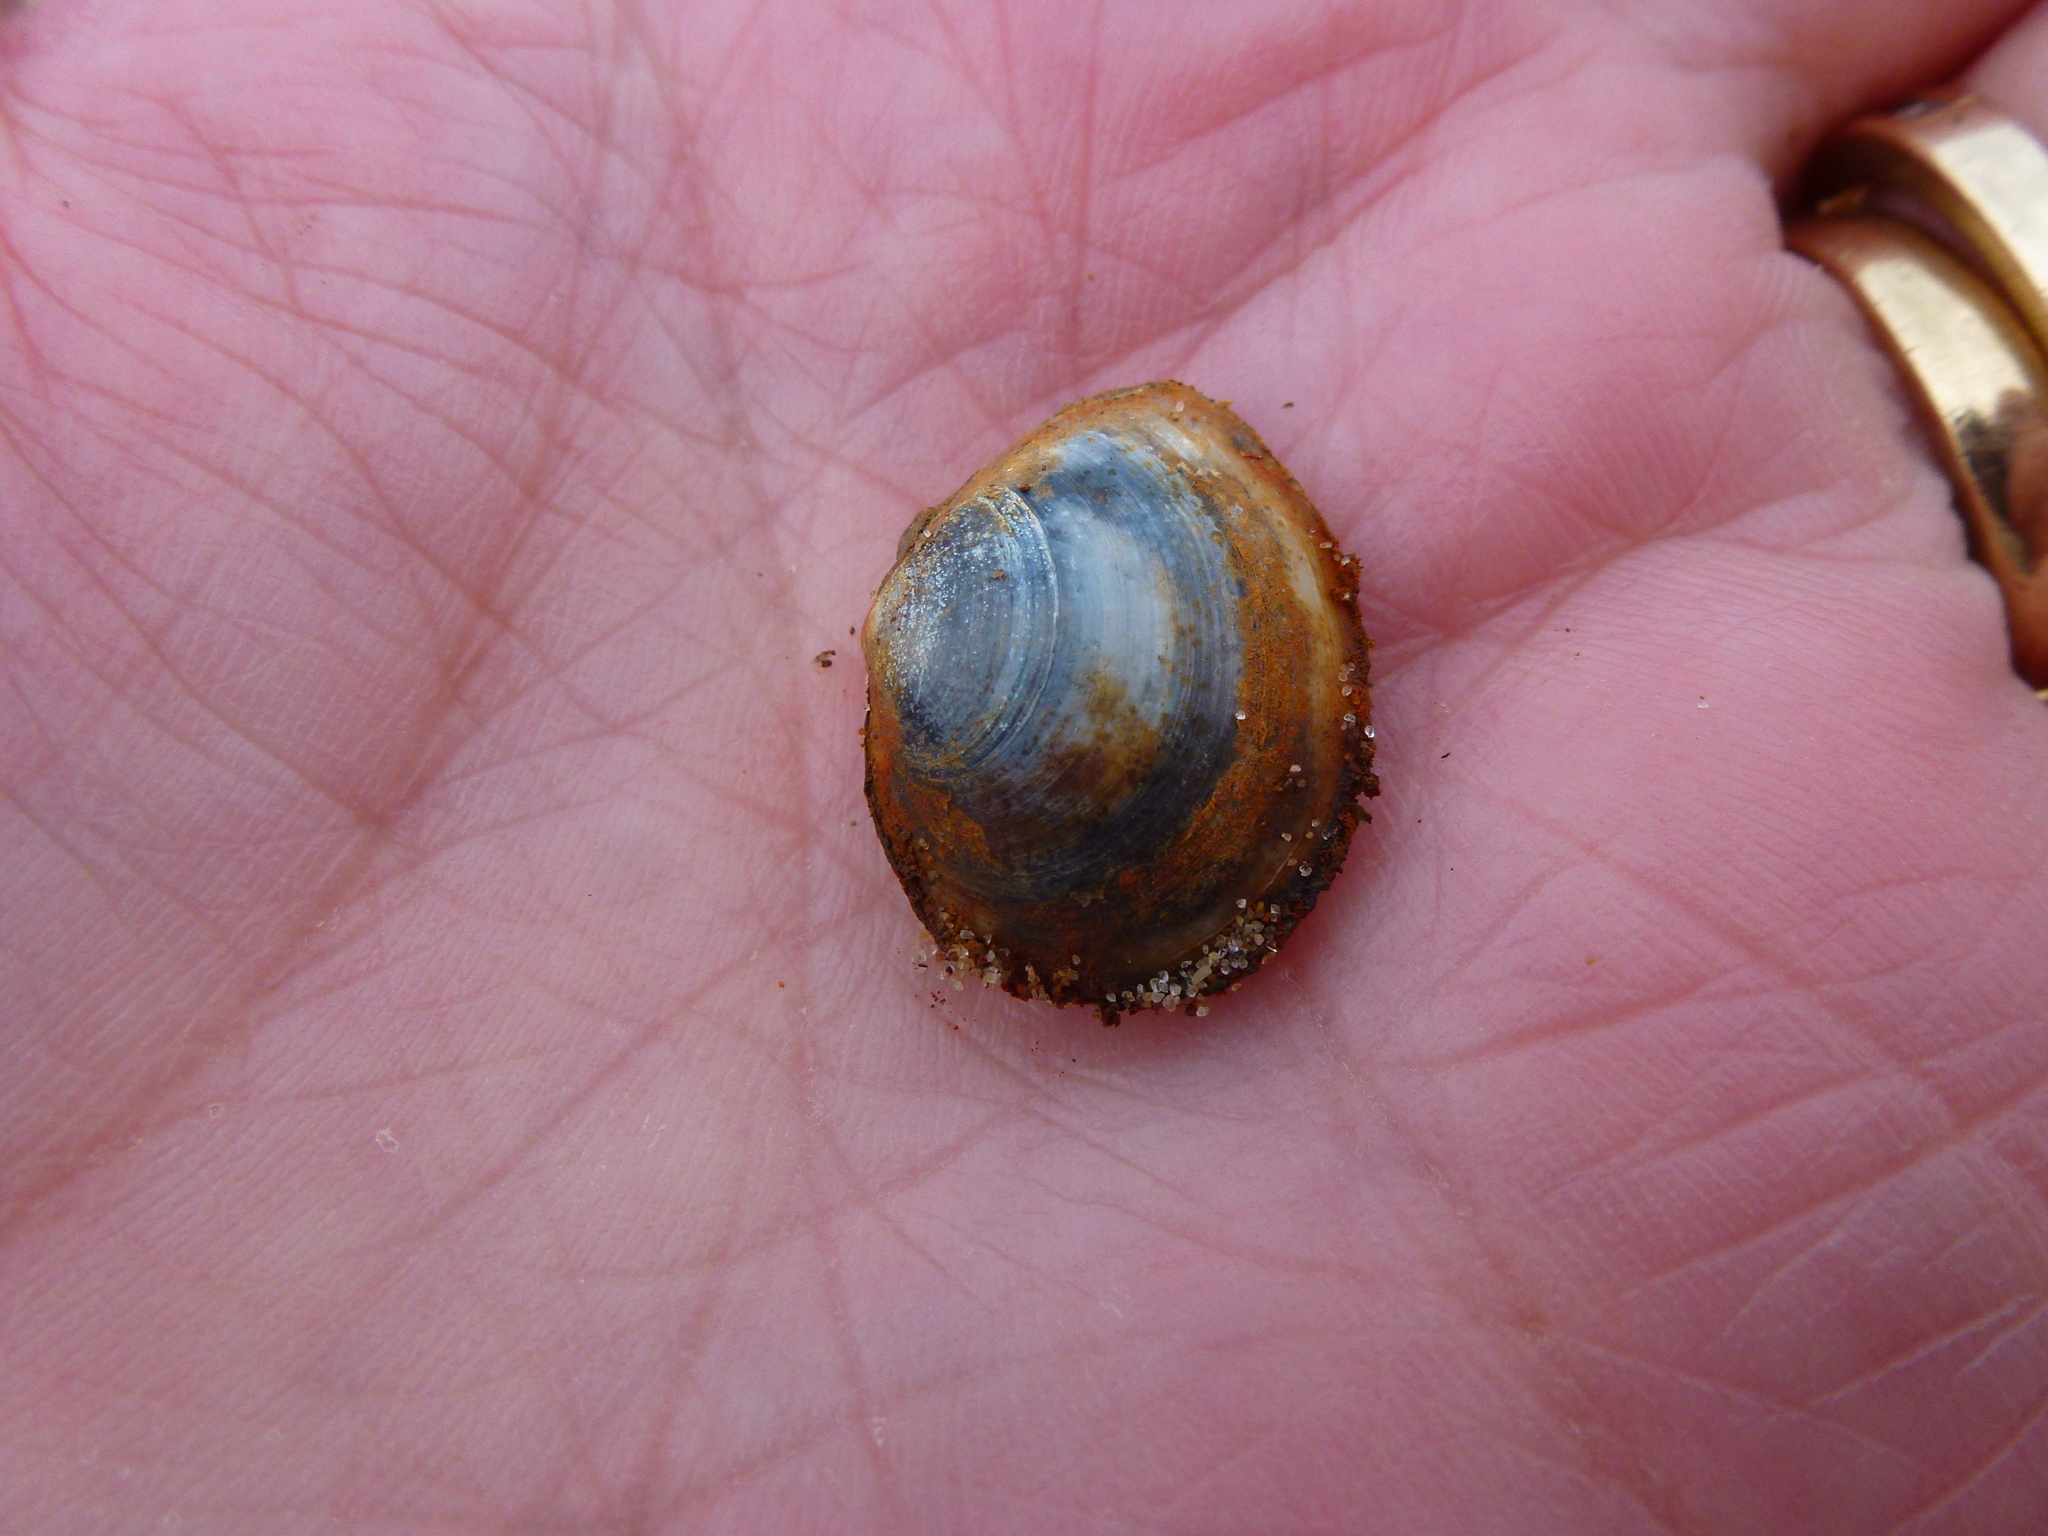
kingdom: Animalia
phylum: Mollusca
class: Bivalvia
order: Cardiida
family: Tellinidae
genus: Macoma
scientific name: Macoma balthica
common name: Baltic tellin
